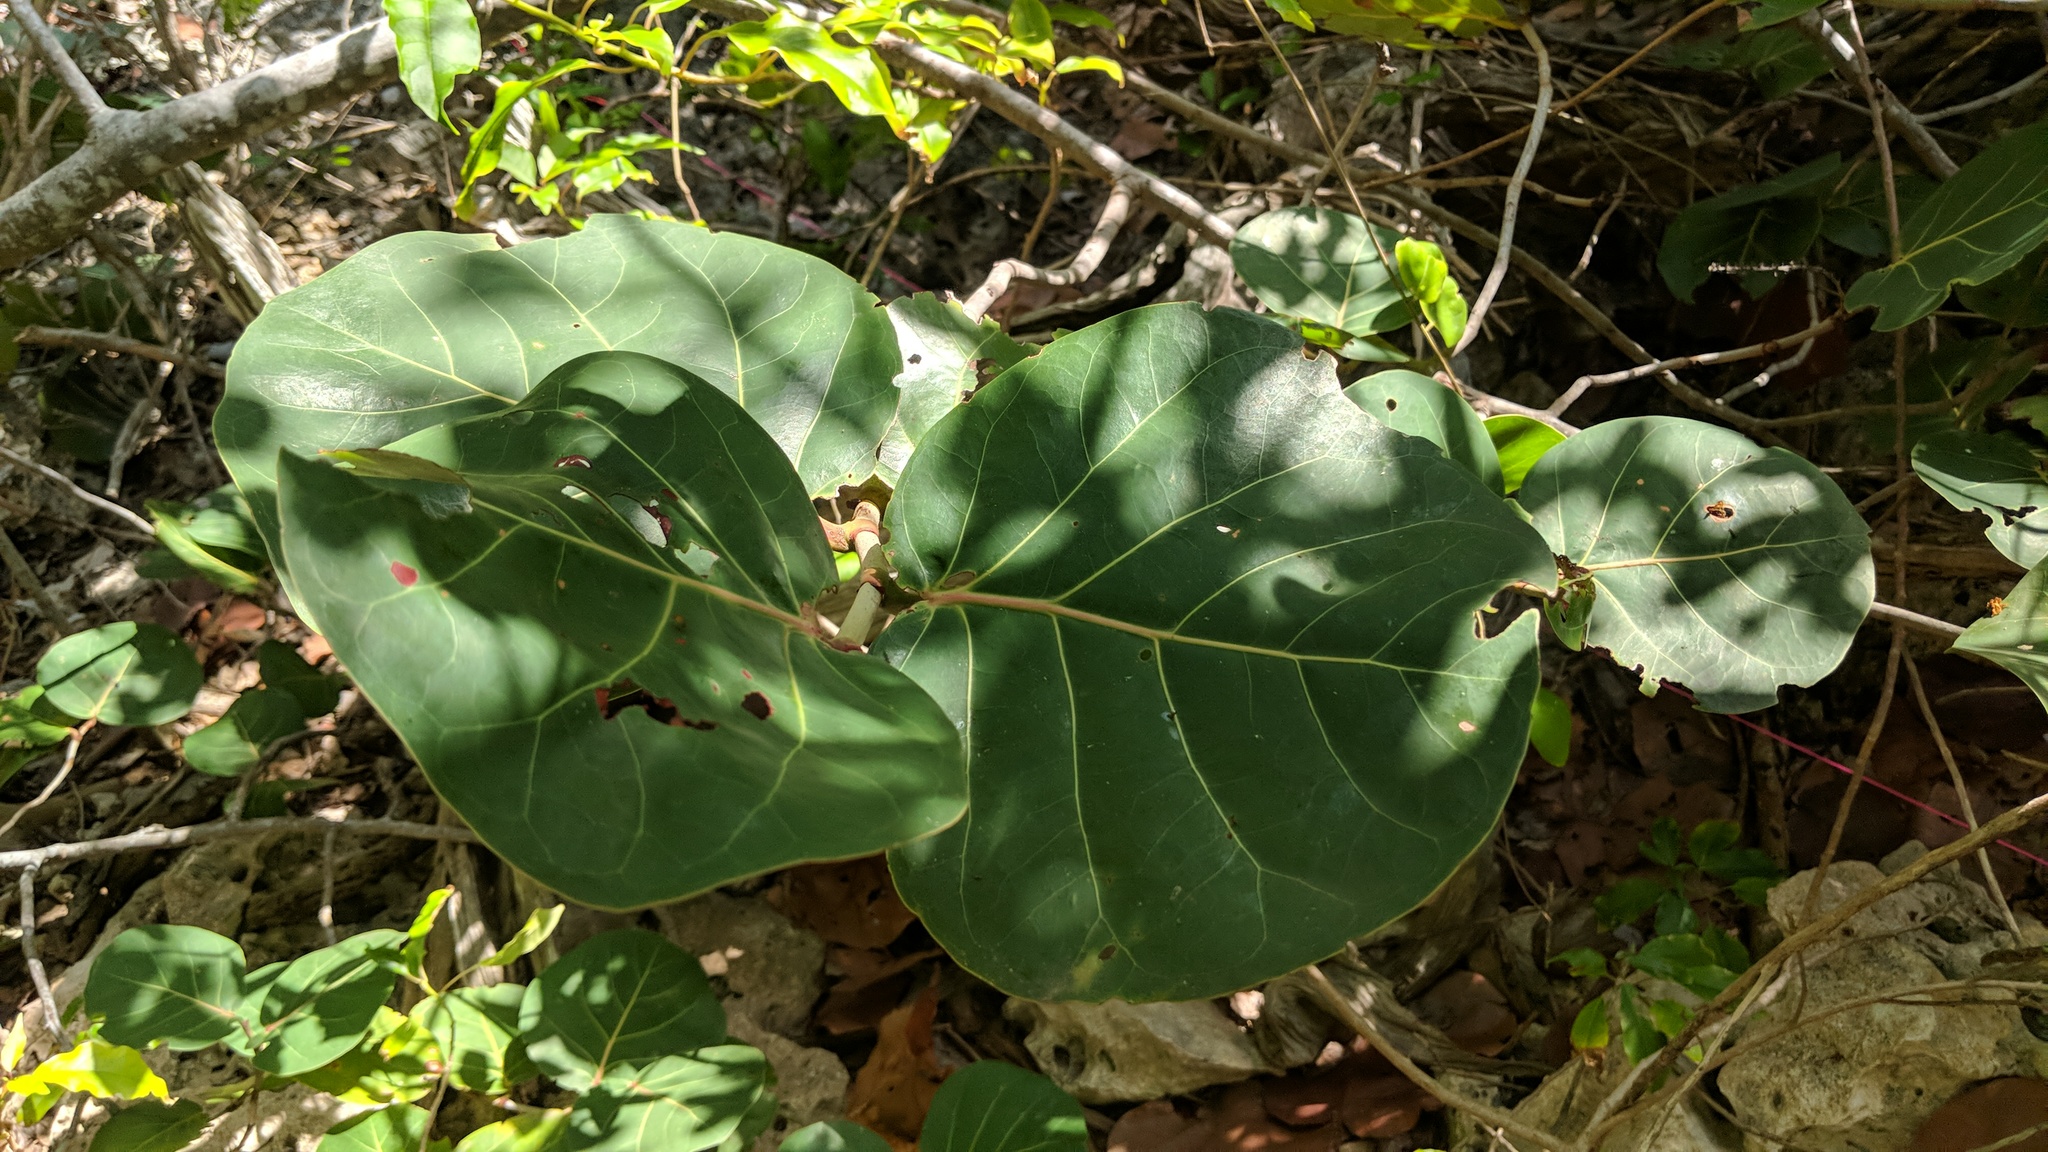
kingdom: Plantae
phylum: Tracheophyta
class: Magnoliopsida
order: Caryophyllales
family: Polygonaceae
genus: Coccoloba
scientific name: Coccoloba uvifera
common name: Seagrape
